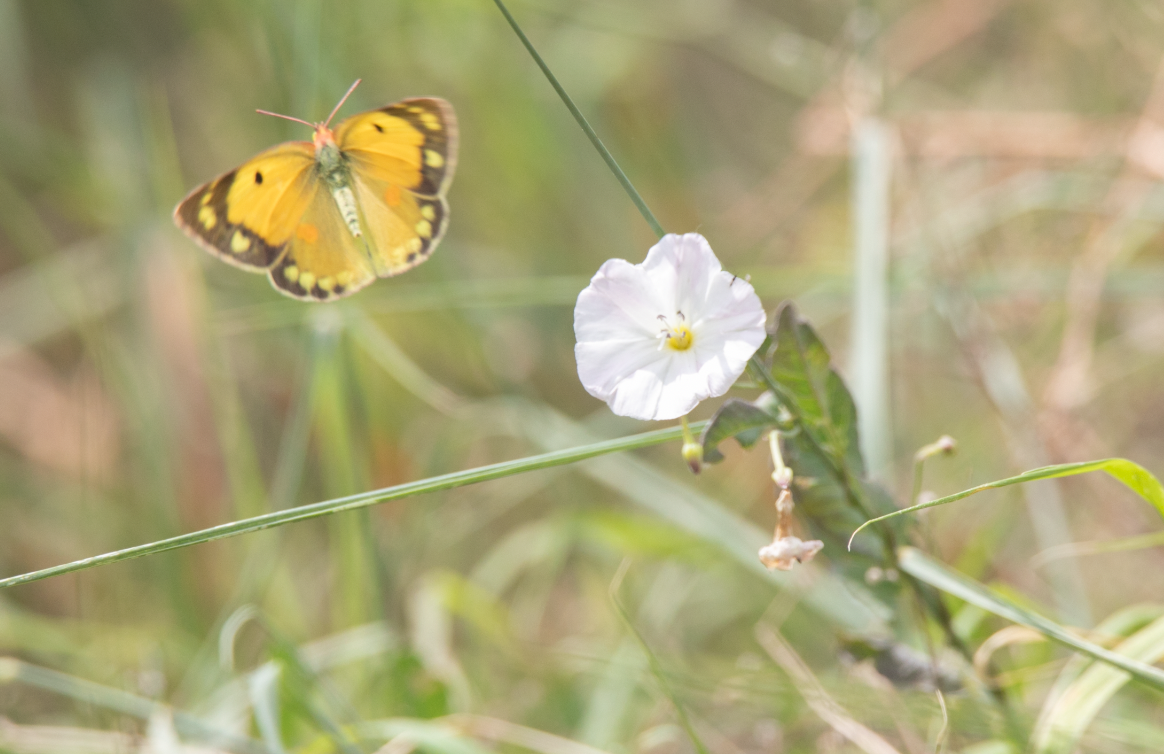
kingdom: Animalia
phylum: Arthropoda
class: Insecta
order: Lepidoptera
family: Pieridae
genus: Colias
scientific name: Colias croceus
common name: Clouded yellow
